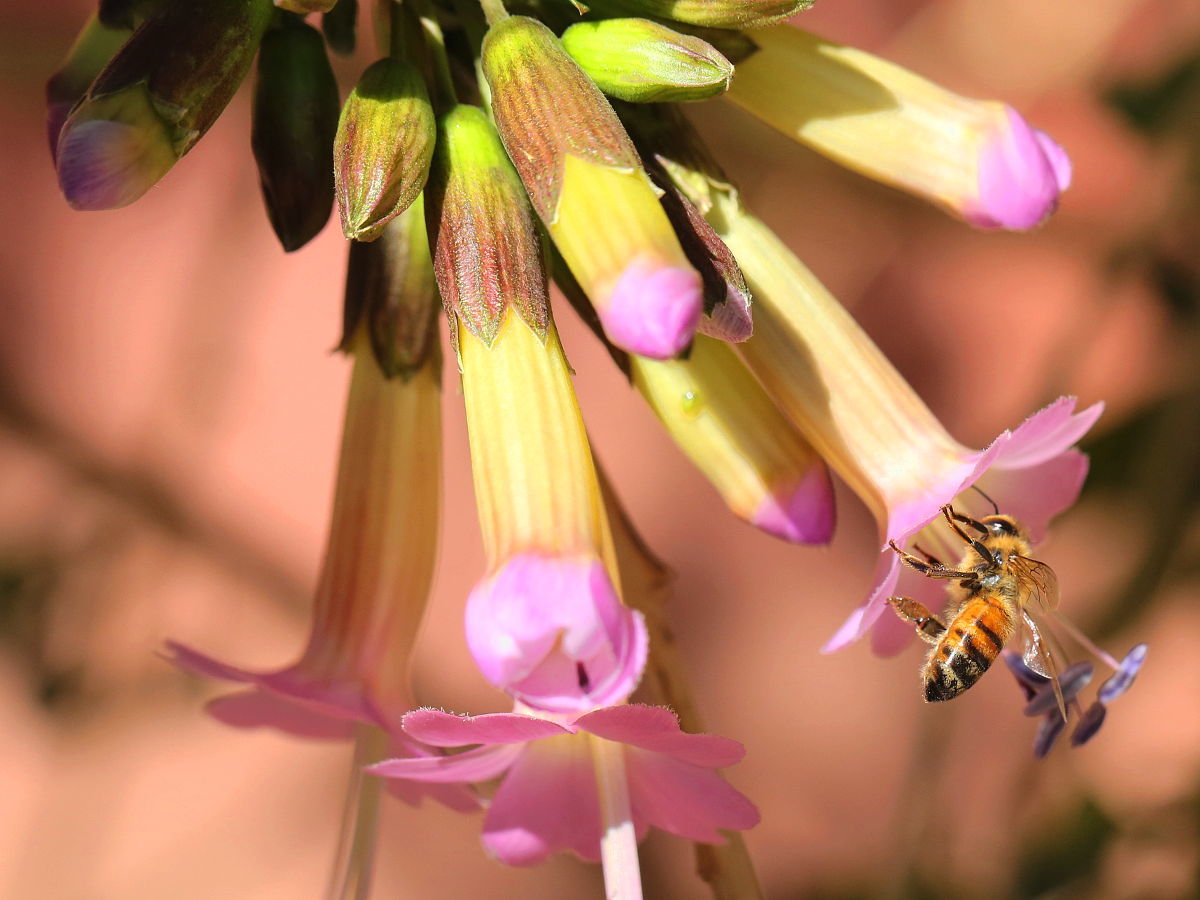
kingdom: Plantae
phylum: Tracheophyta
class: Magnoliopsida
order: Ericales
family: Polemoniaceae
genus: Cantua
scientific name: Cantua buxifolia
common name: Sacred-flower-of-the-incas
